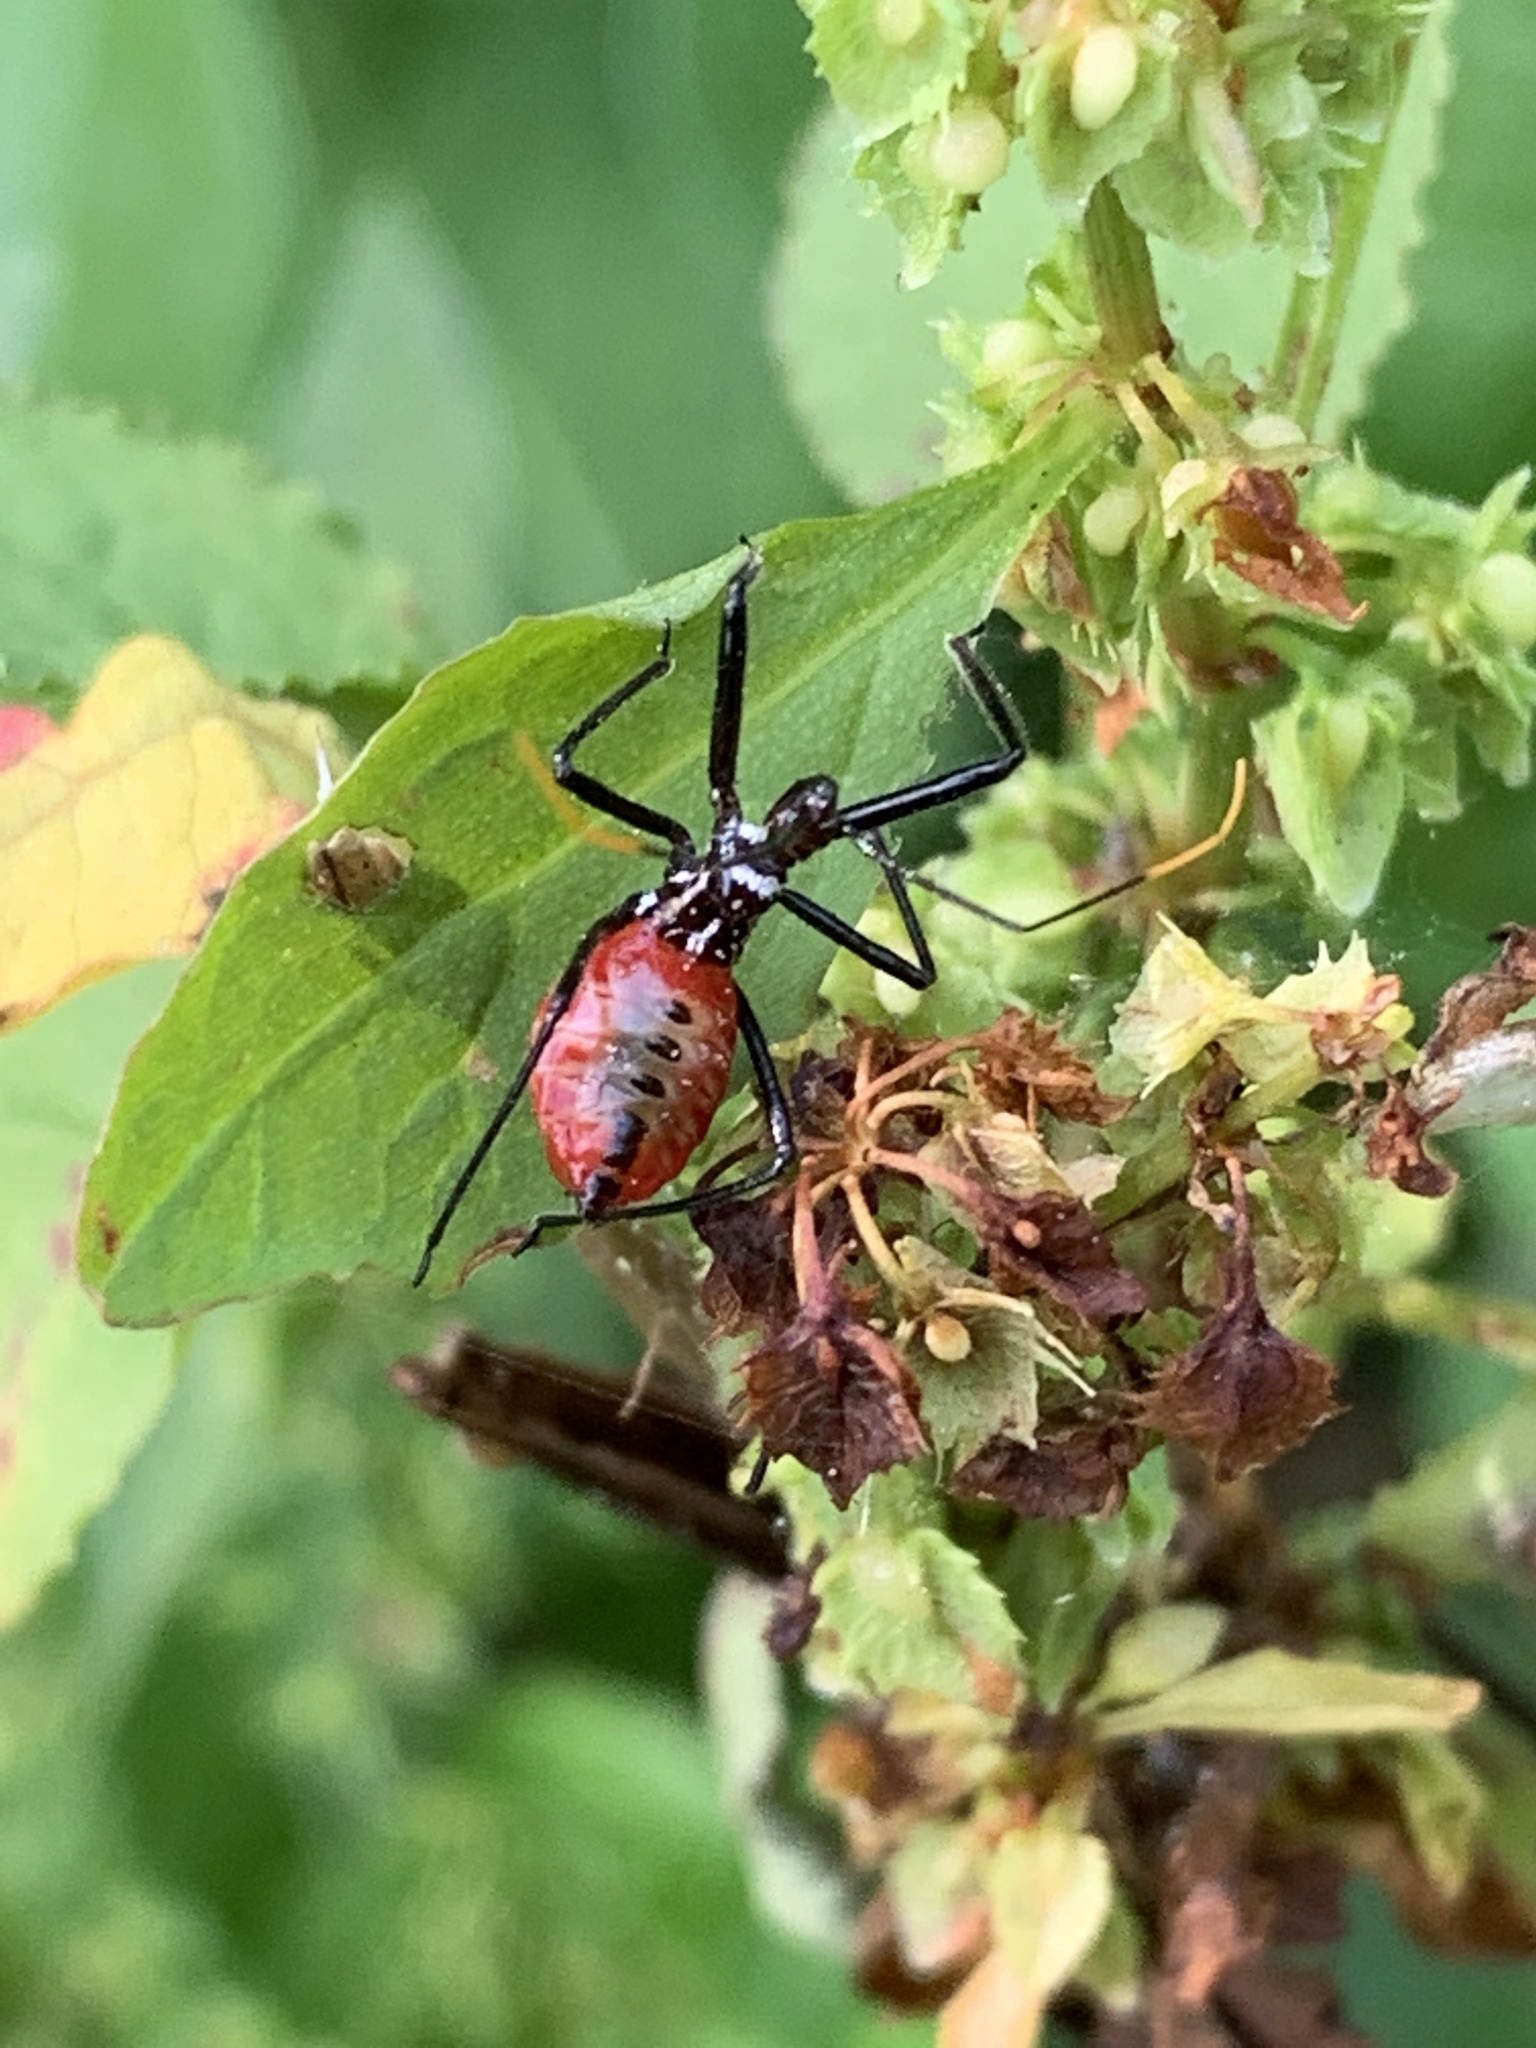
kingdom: Animalia
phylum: Arthropoda
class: Insecta
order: Hemiptera
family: Reduviidae
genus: Arilus
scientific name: Arilus cristatus
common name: North american wheel bug
